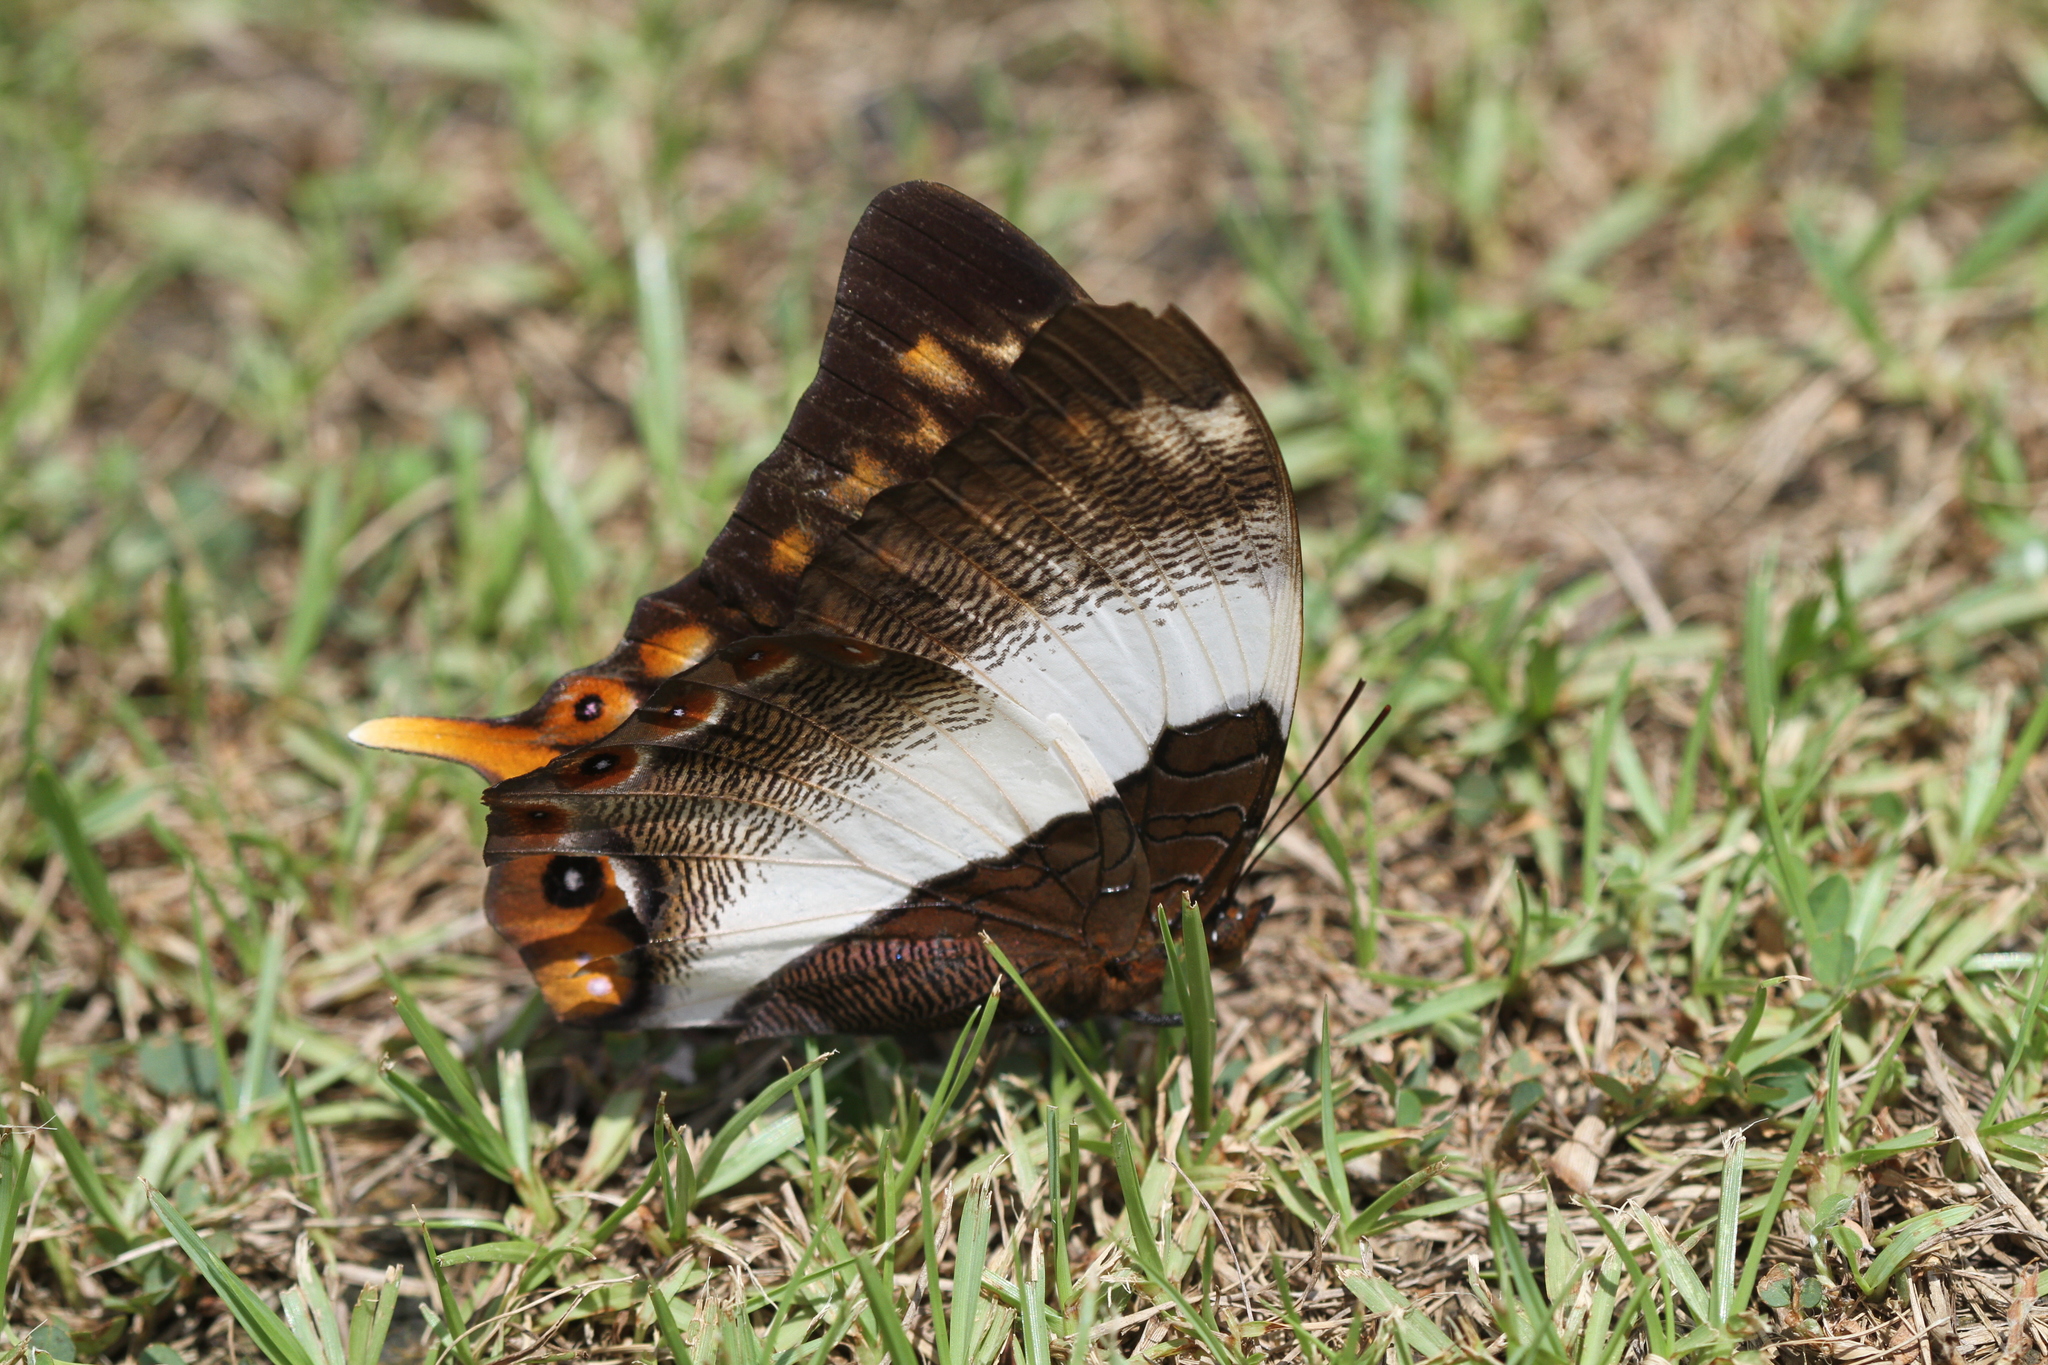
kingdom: Animalia
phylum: Arthropoda
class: Insecta
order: Lepidoptera
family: Nymphalidae
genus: Palla
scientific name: Palla violinitens
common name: Violet-banded palla
